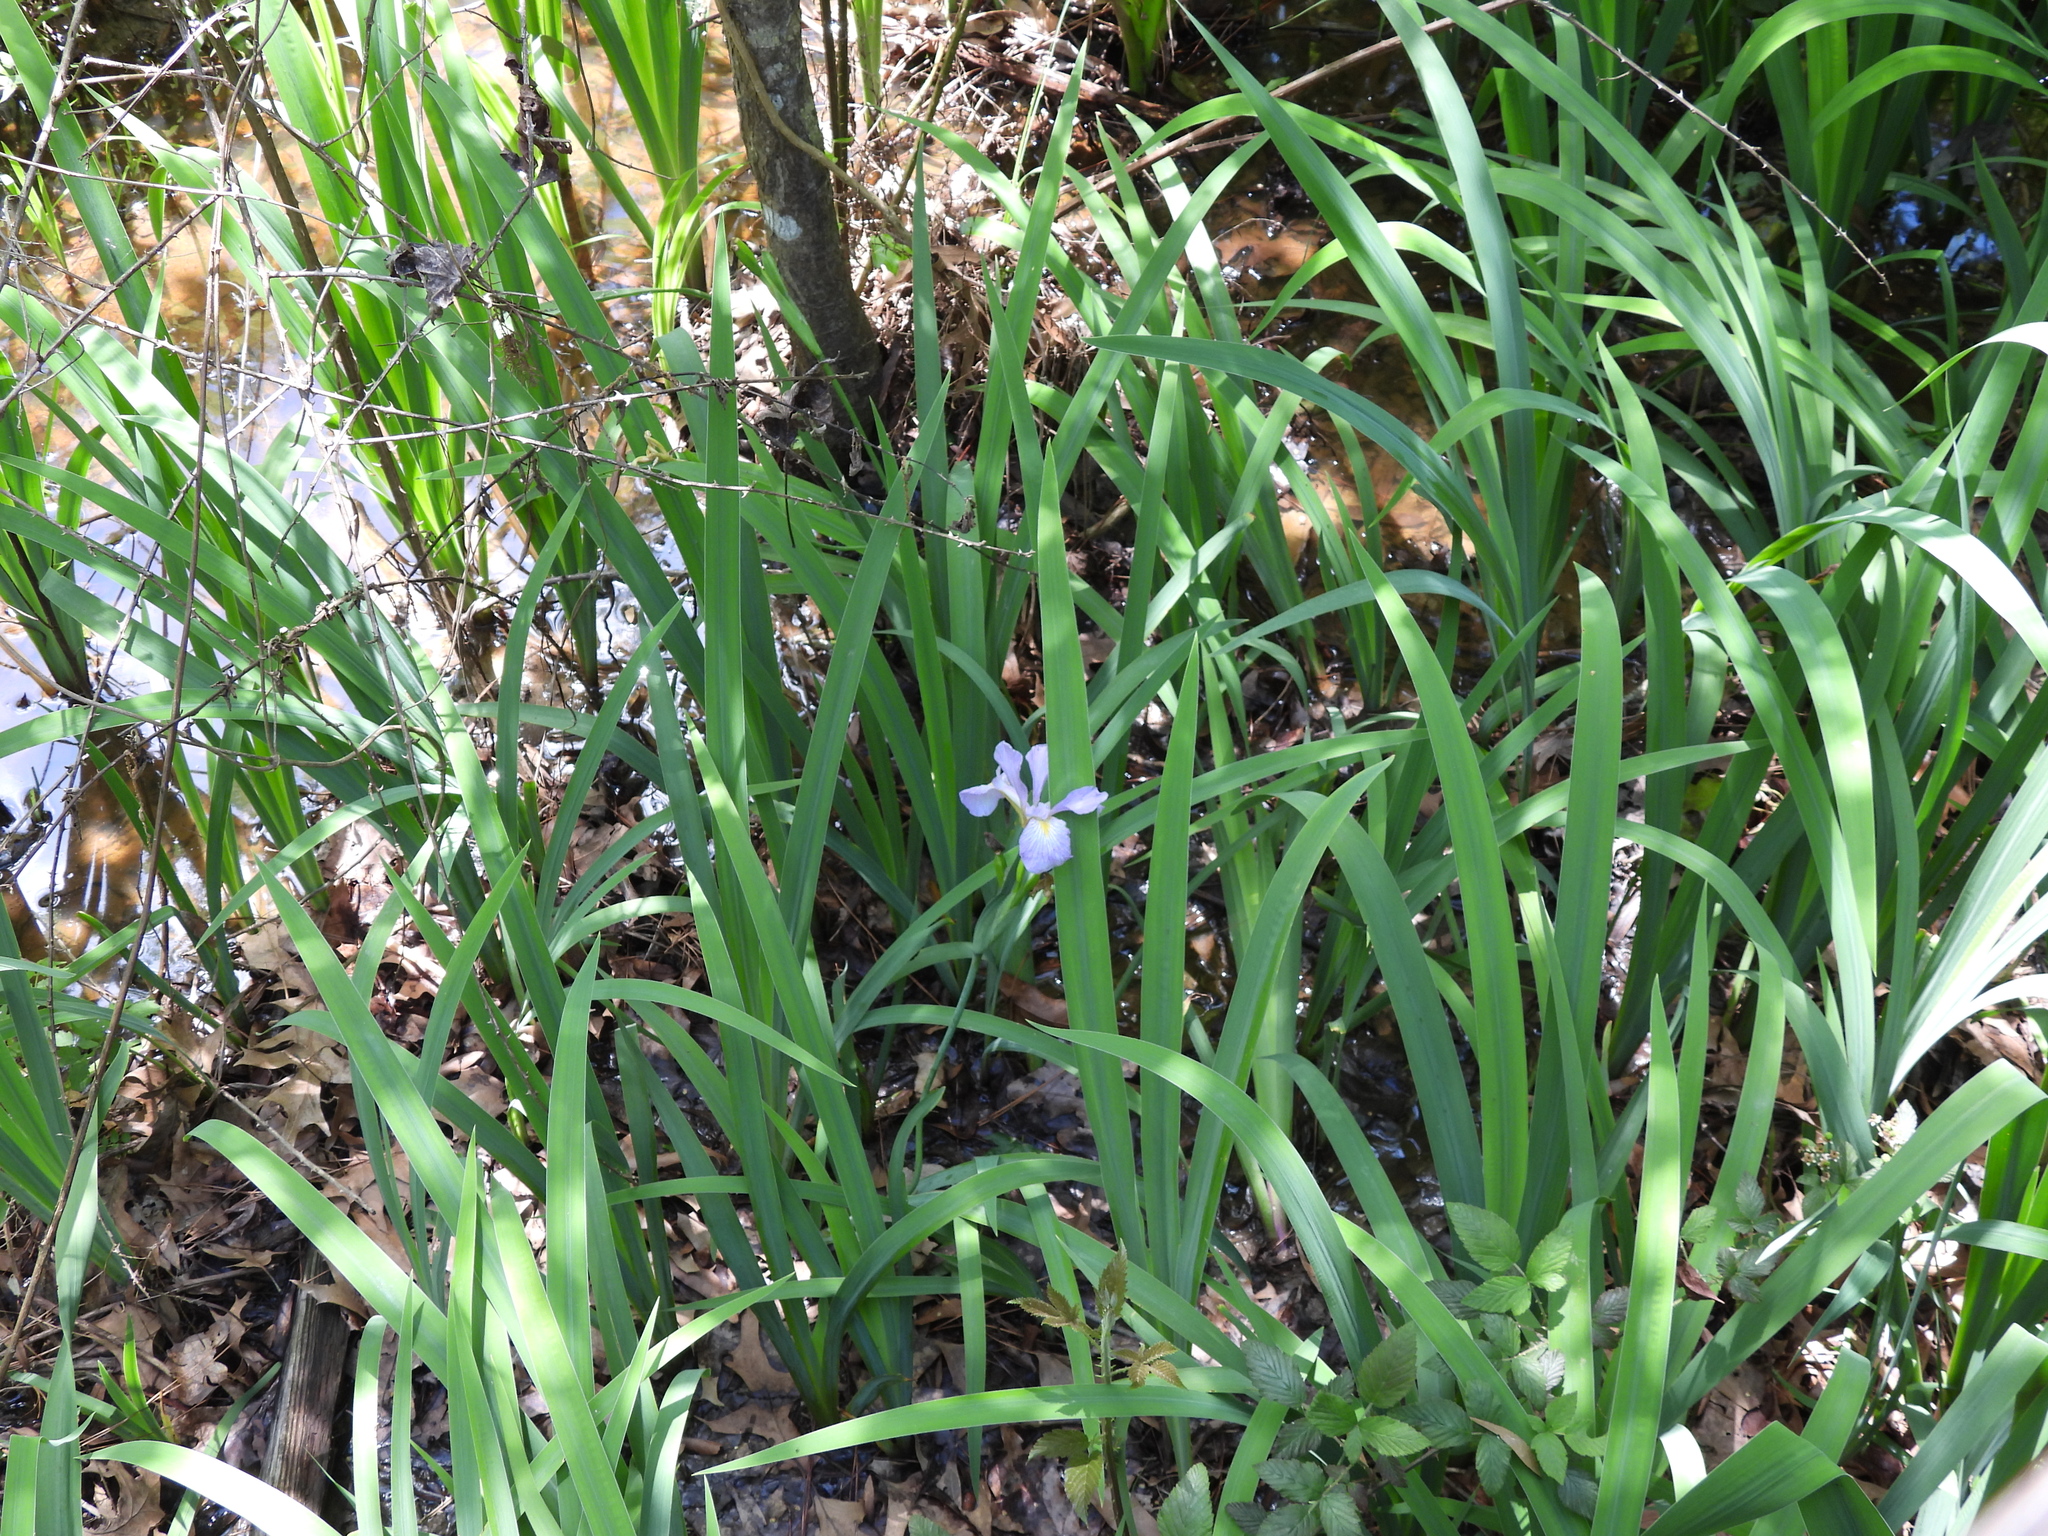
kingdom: Plantae
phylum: Tracheophyta
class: Liliopsida
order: Asparagales
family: Iridaceae
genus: Iris
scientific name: Iris virginica
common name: Southern blue flag
